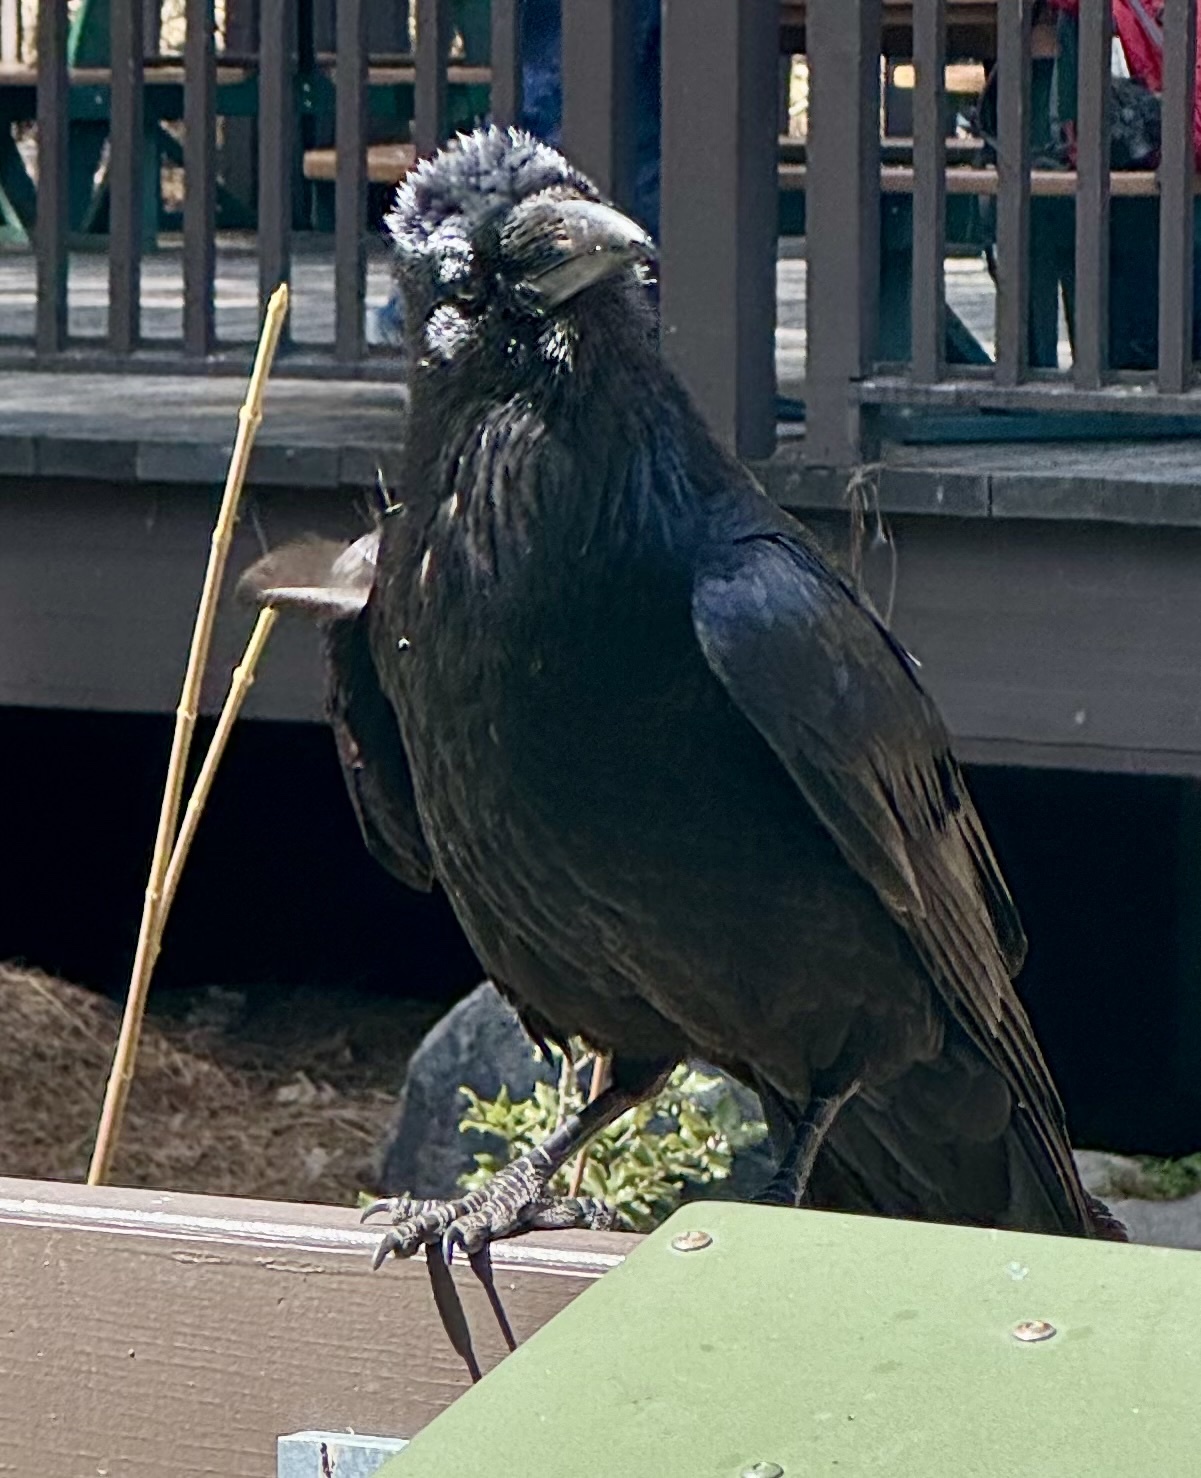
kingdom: Animalia
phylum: Chordata
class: Aves
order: Passeriformes
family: Corvidae
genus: Corvus
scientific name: Corvus corax
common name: Common raven
